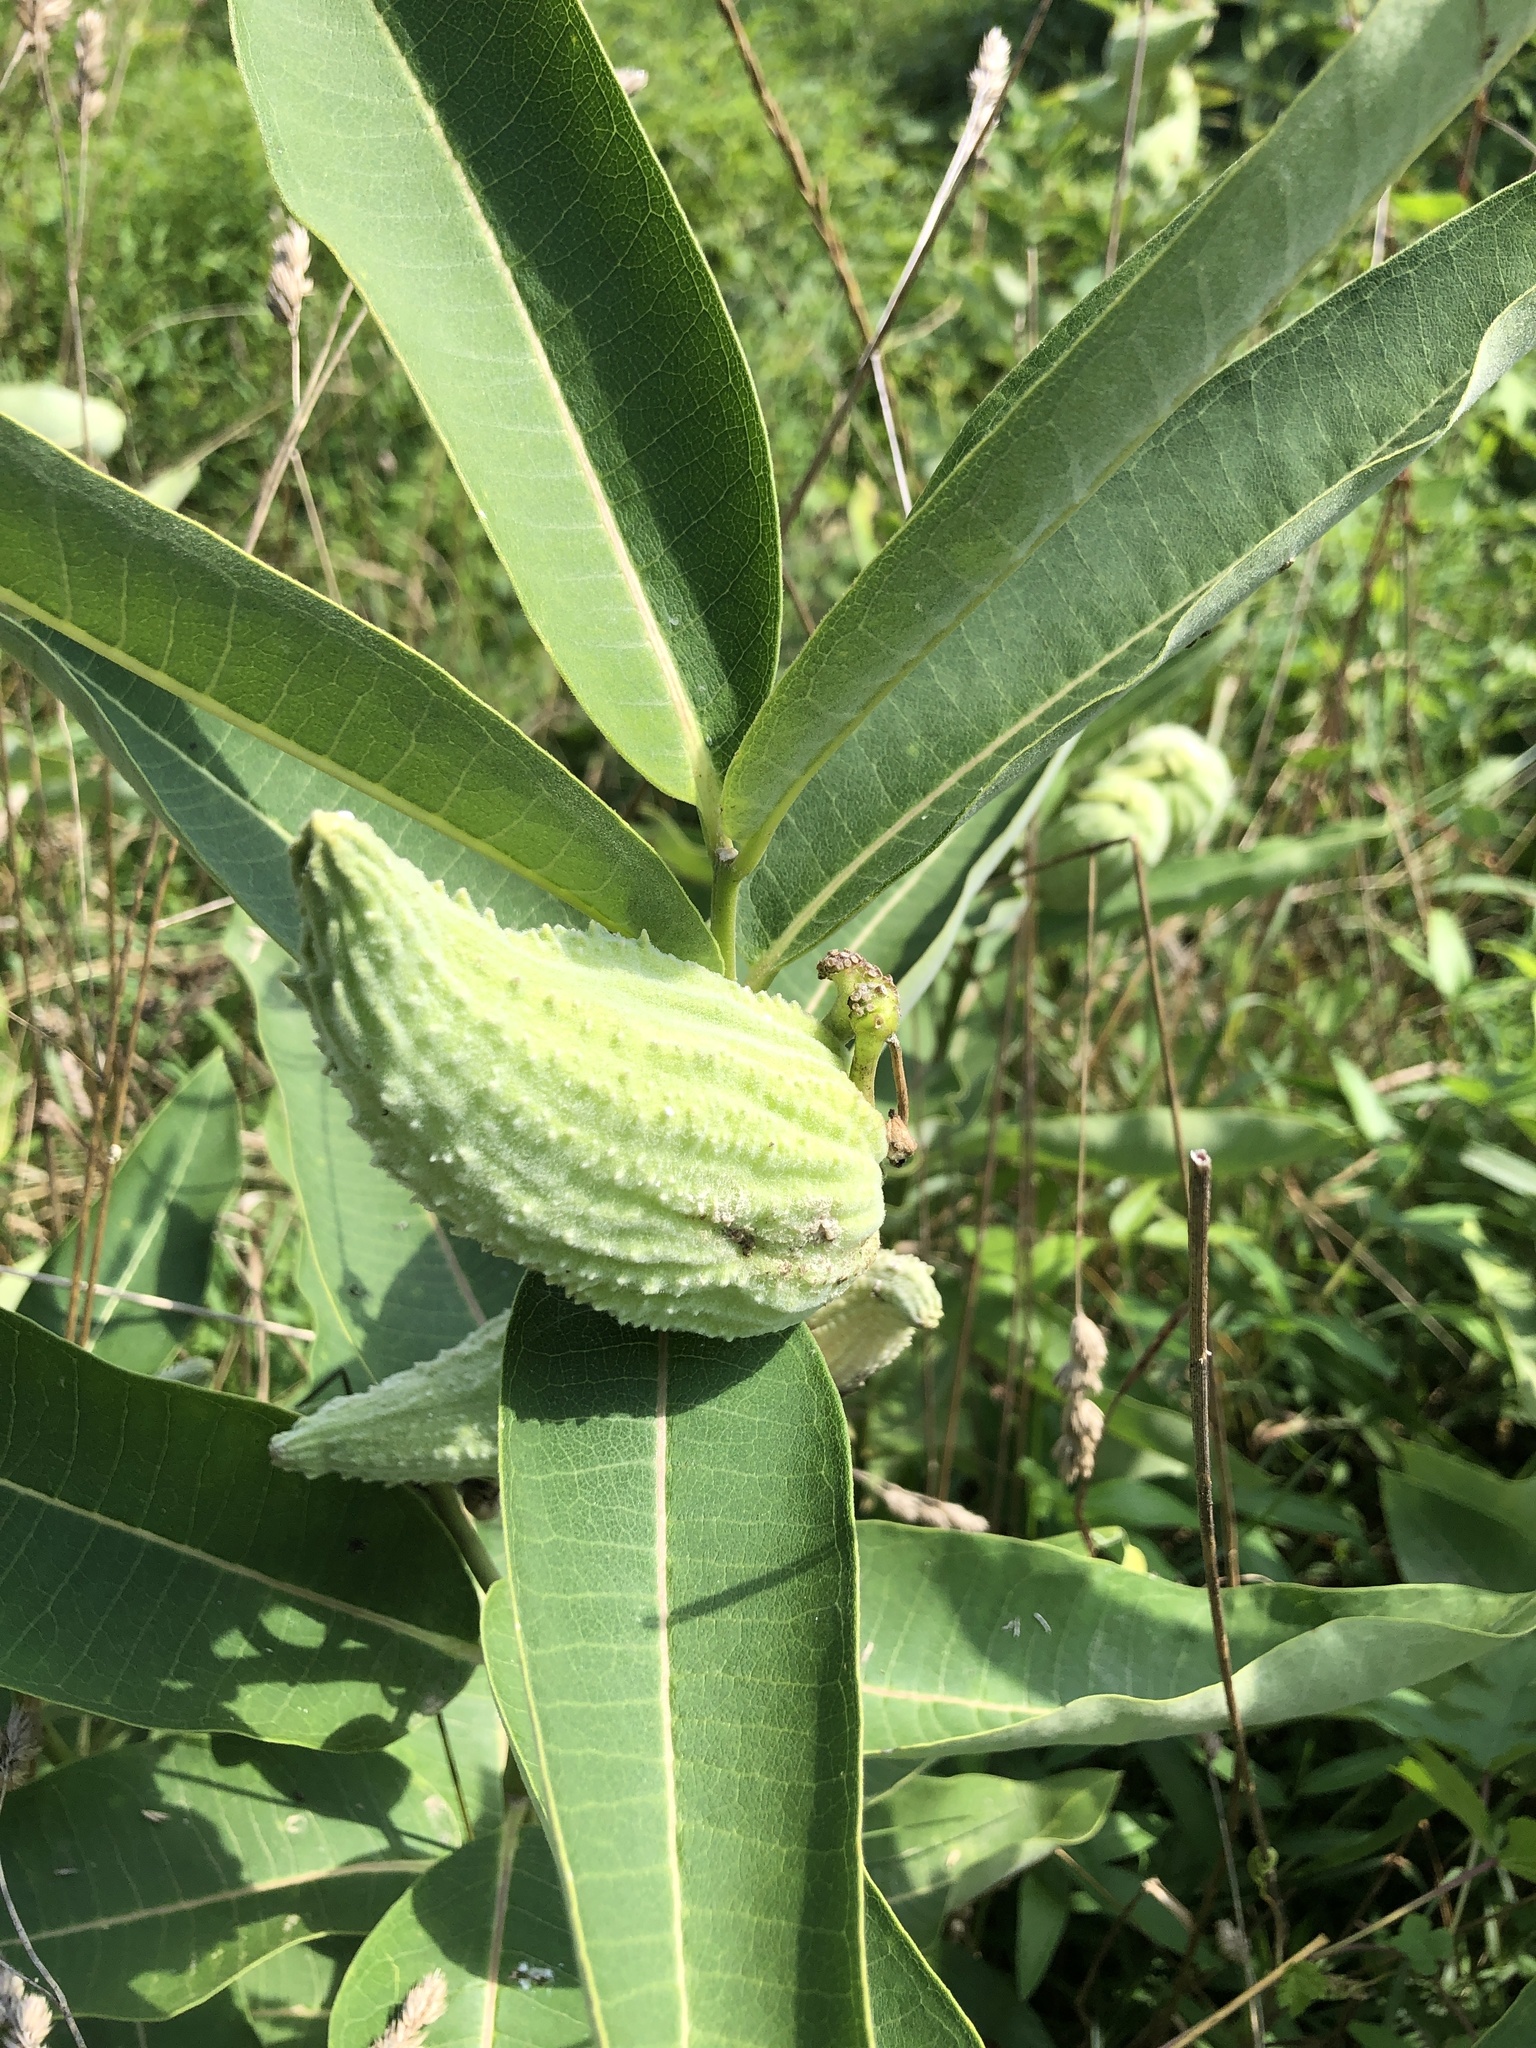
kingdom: Plantae
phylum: Tracheophyta
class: Magnoliopsida
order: Gentianales
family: Apocynaceae
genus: Asclepias
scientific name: Asclepias syriaca
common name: Common milkweed
